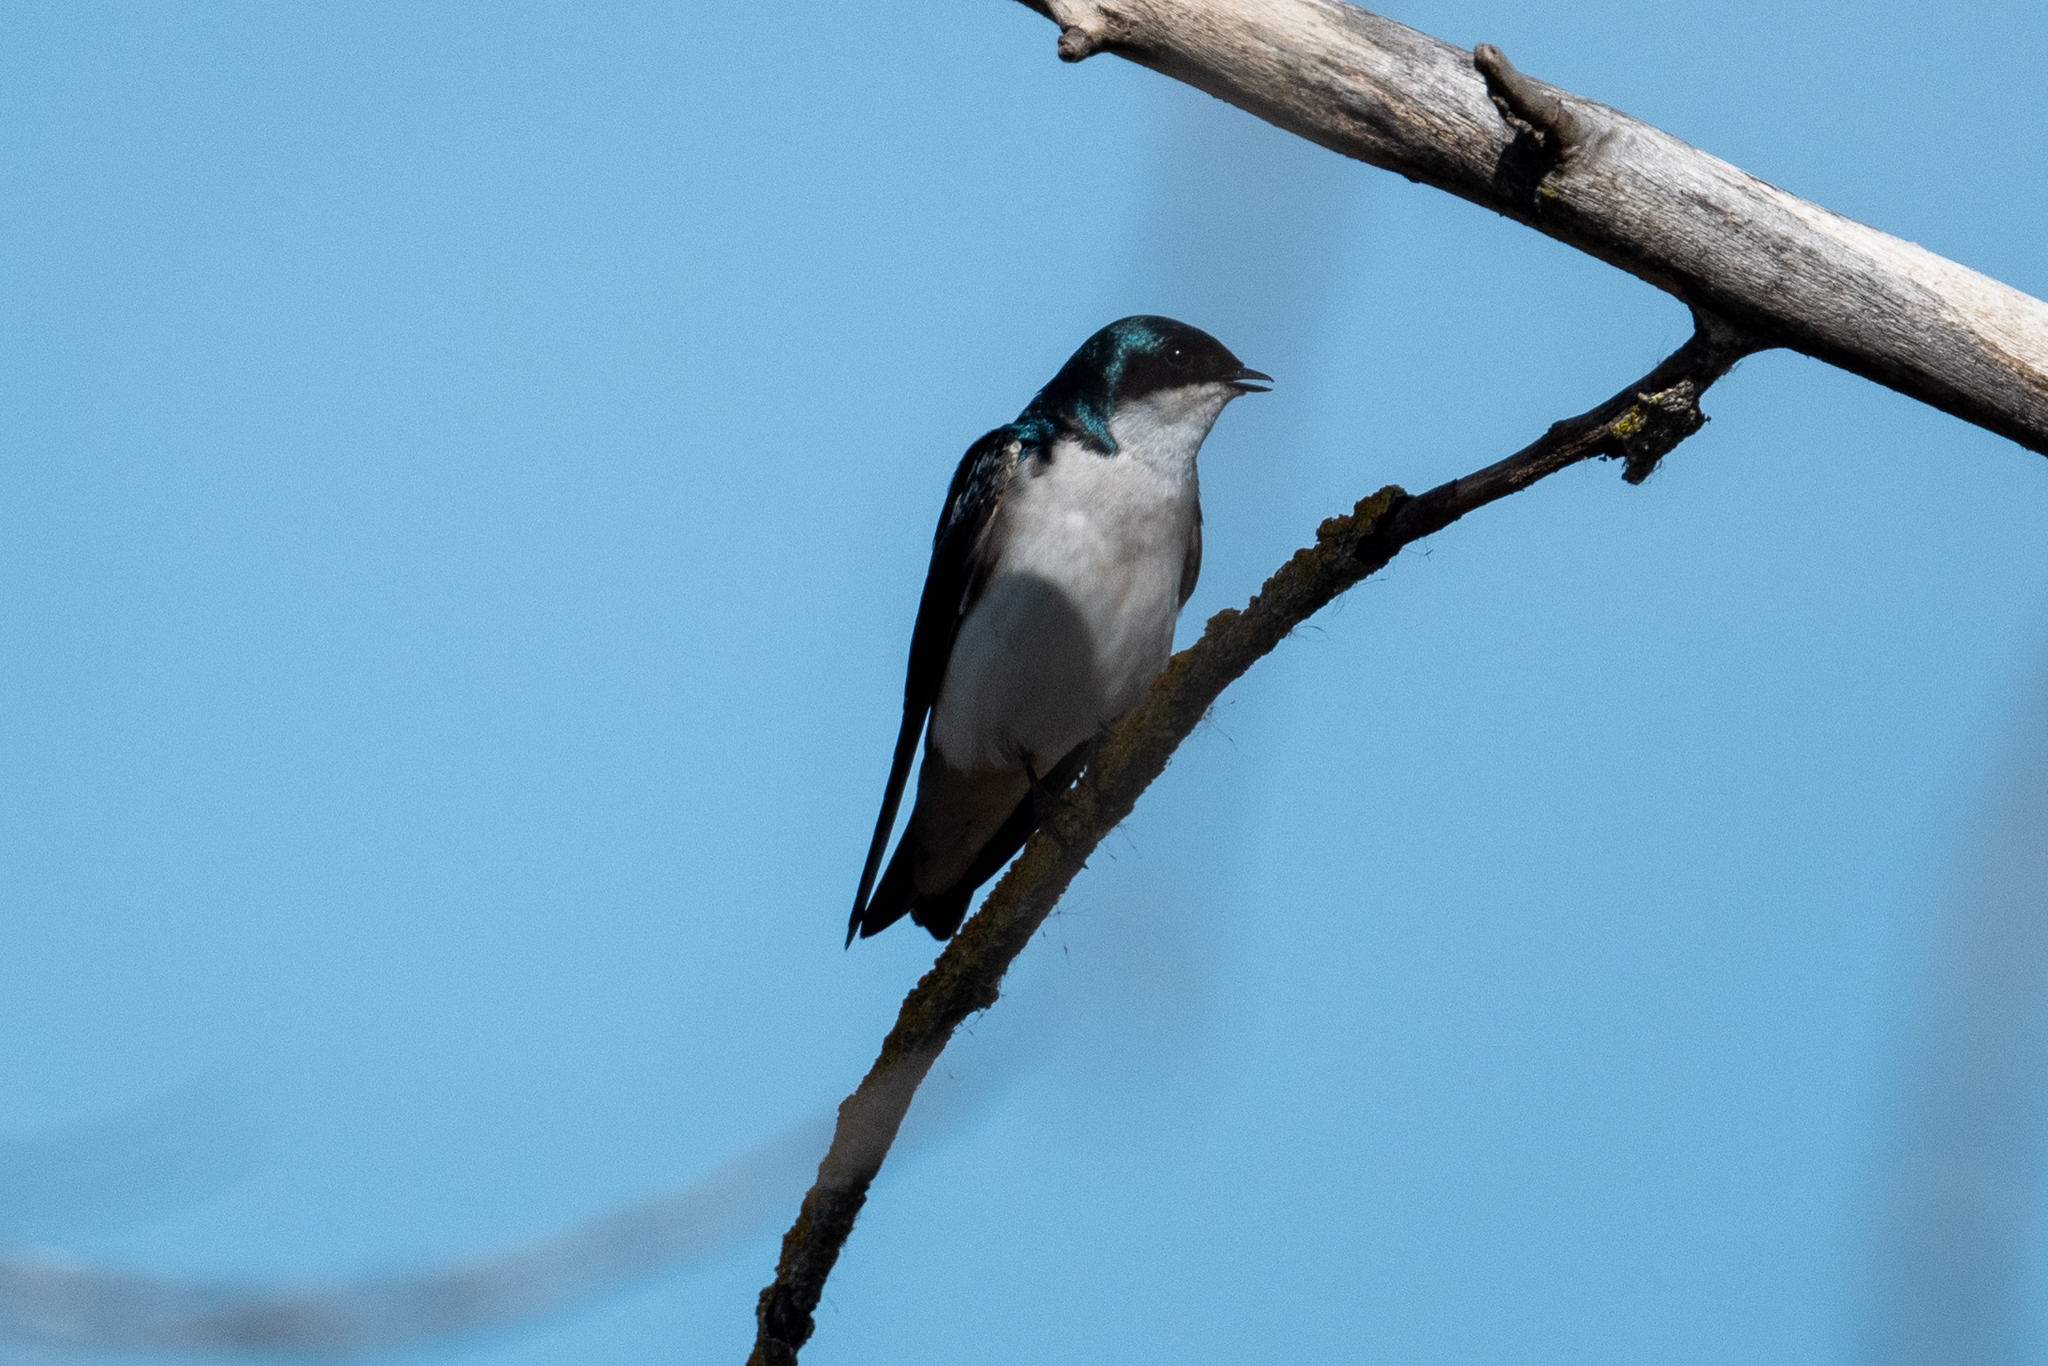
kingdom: Animalia
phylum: Chordata
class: Aves
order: Passeriformes
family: Hirundinidae
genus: Tachycineta
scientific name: Tachycineta bicolor
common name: Tree swallow
